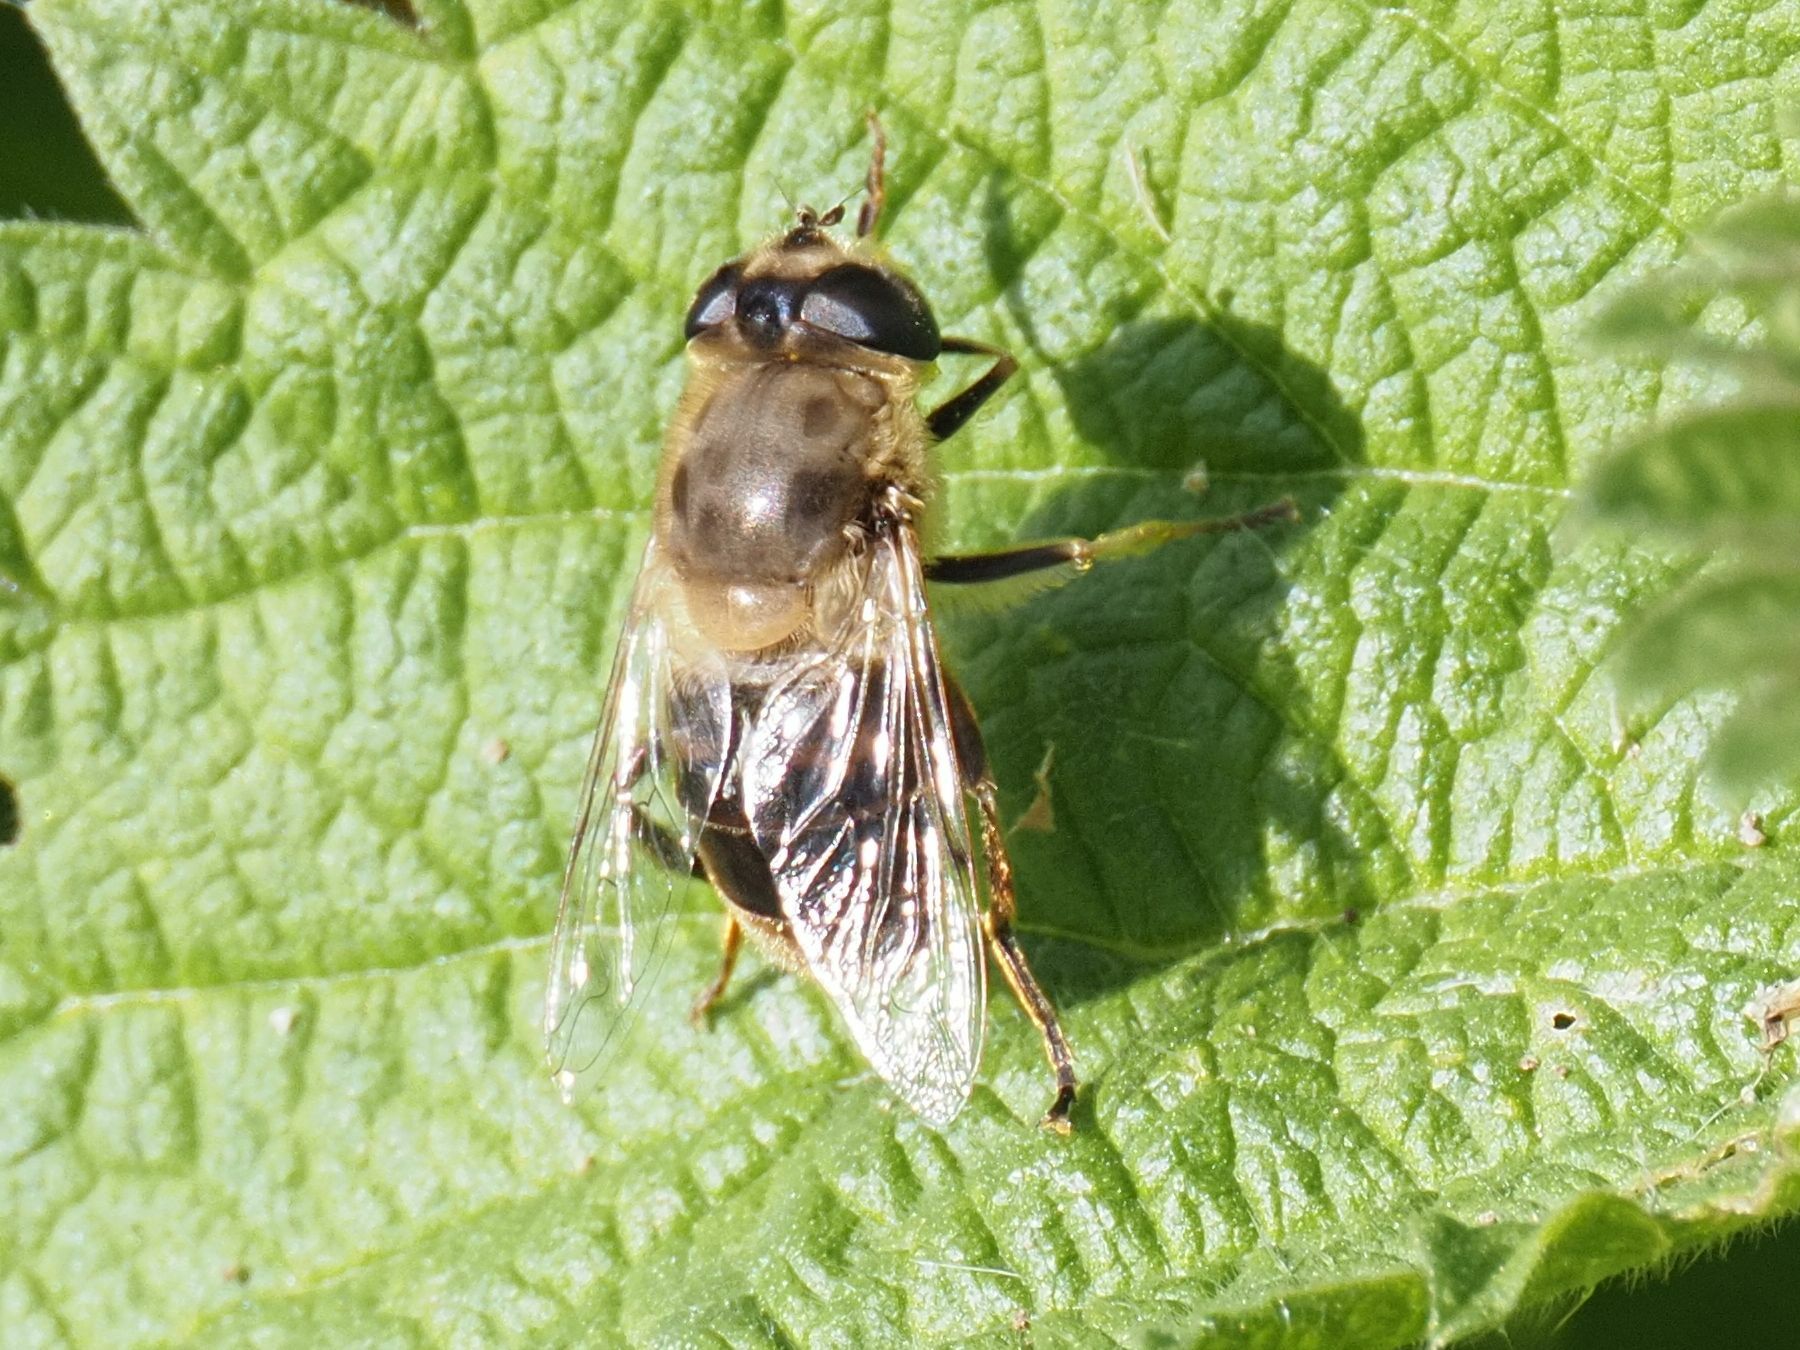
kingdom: Animalia
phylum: Arthropoda
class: Insecta
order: Diptera
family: Syrphidae
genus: Eristalis
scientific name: Eristalis tenax
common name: Drone fly
